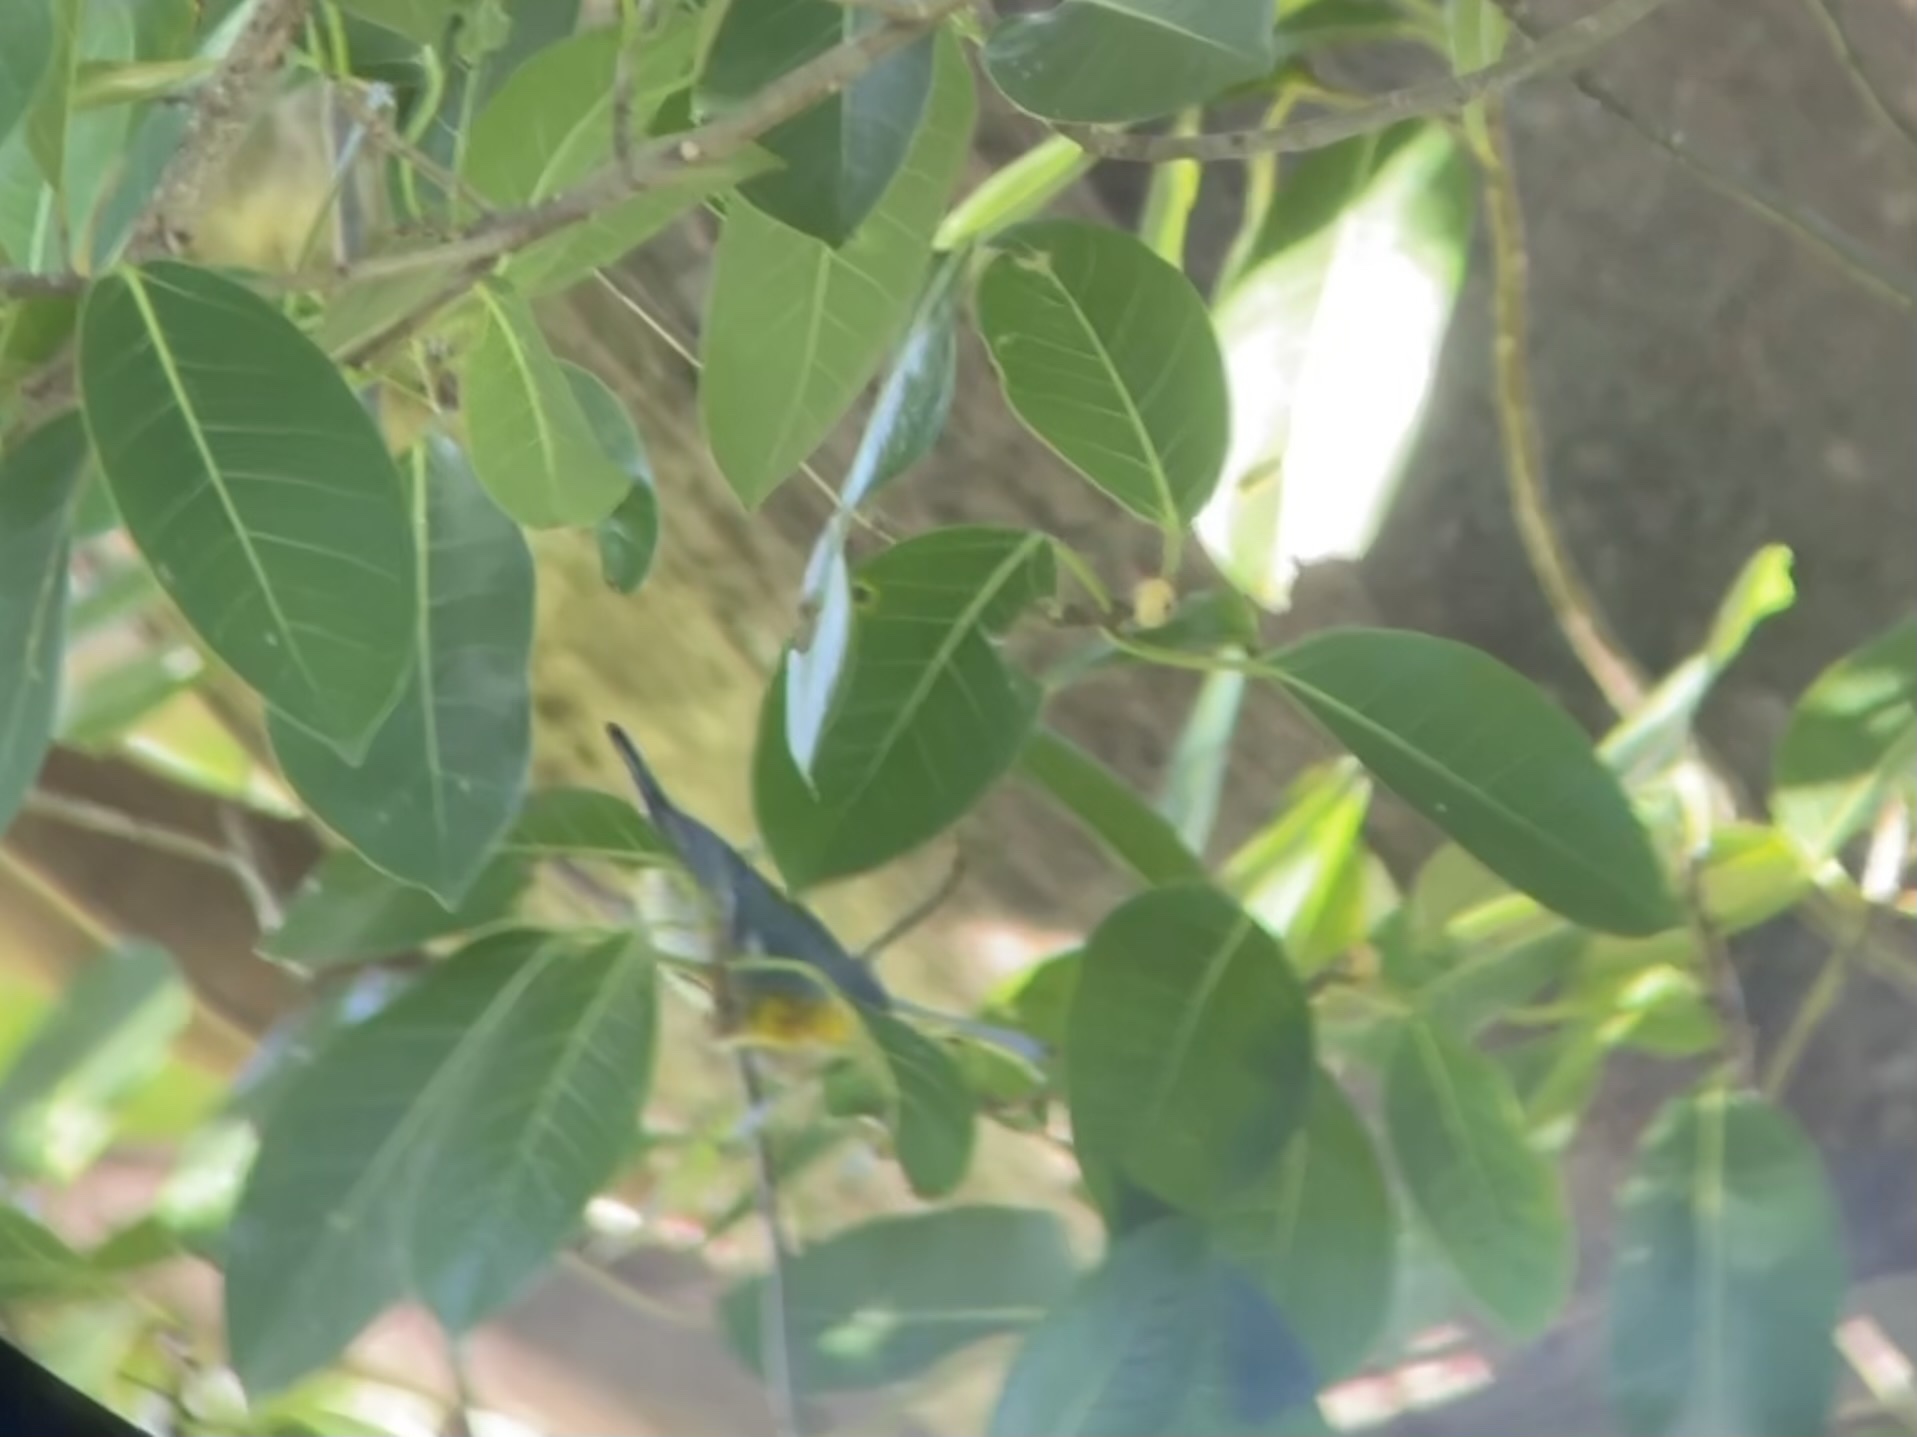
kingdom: Animalia
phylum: Chordata
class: Aves
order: Passeriformes
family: Parulidae
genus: Setophaga
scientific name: Setophaga americana
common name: Northern parula
